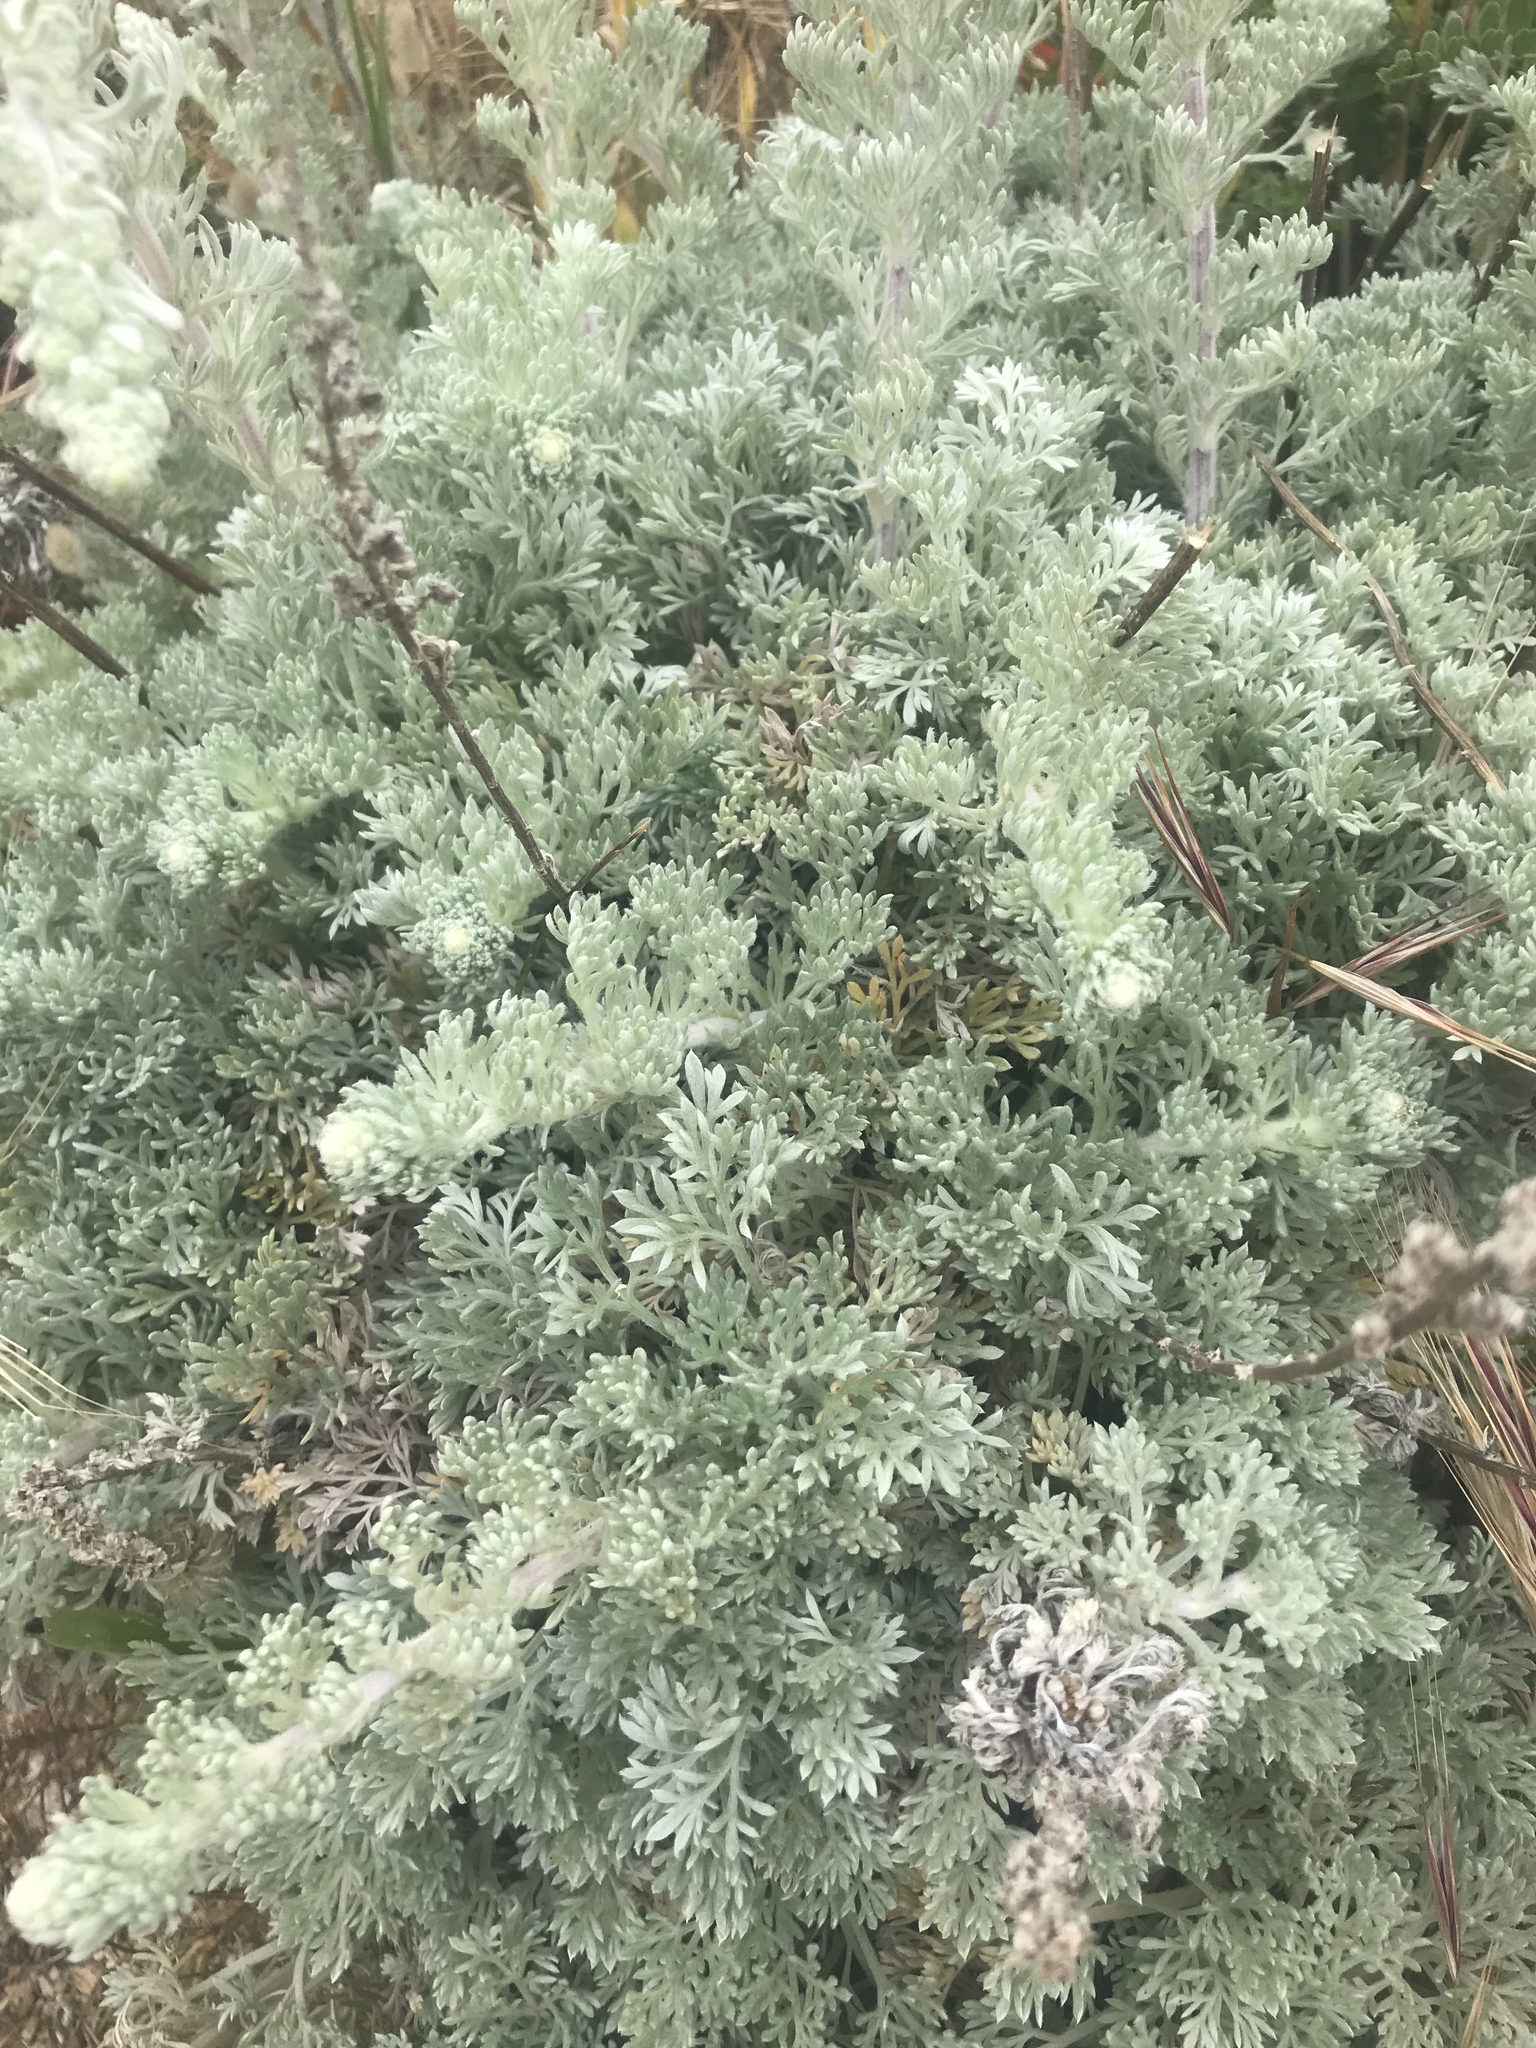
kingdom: Plantae
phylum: Tracheophyta
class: Magnoliopsida
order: Asterales
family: Asteraceae
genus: Artemisia
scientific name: Artemisia pycnocephala
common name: Coastal sagewort
